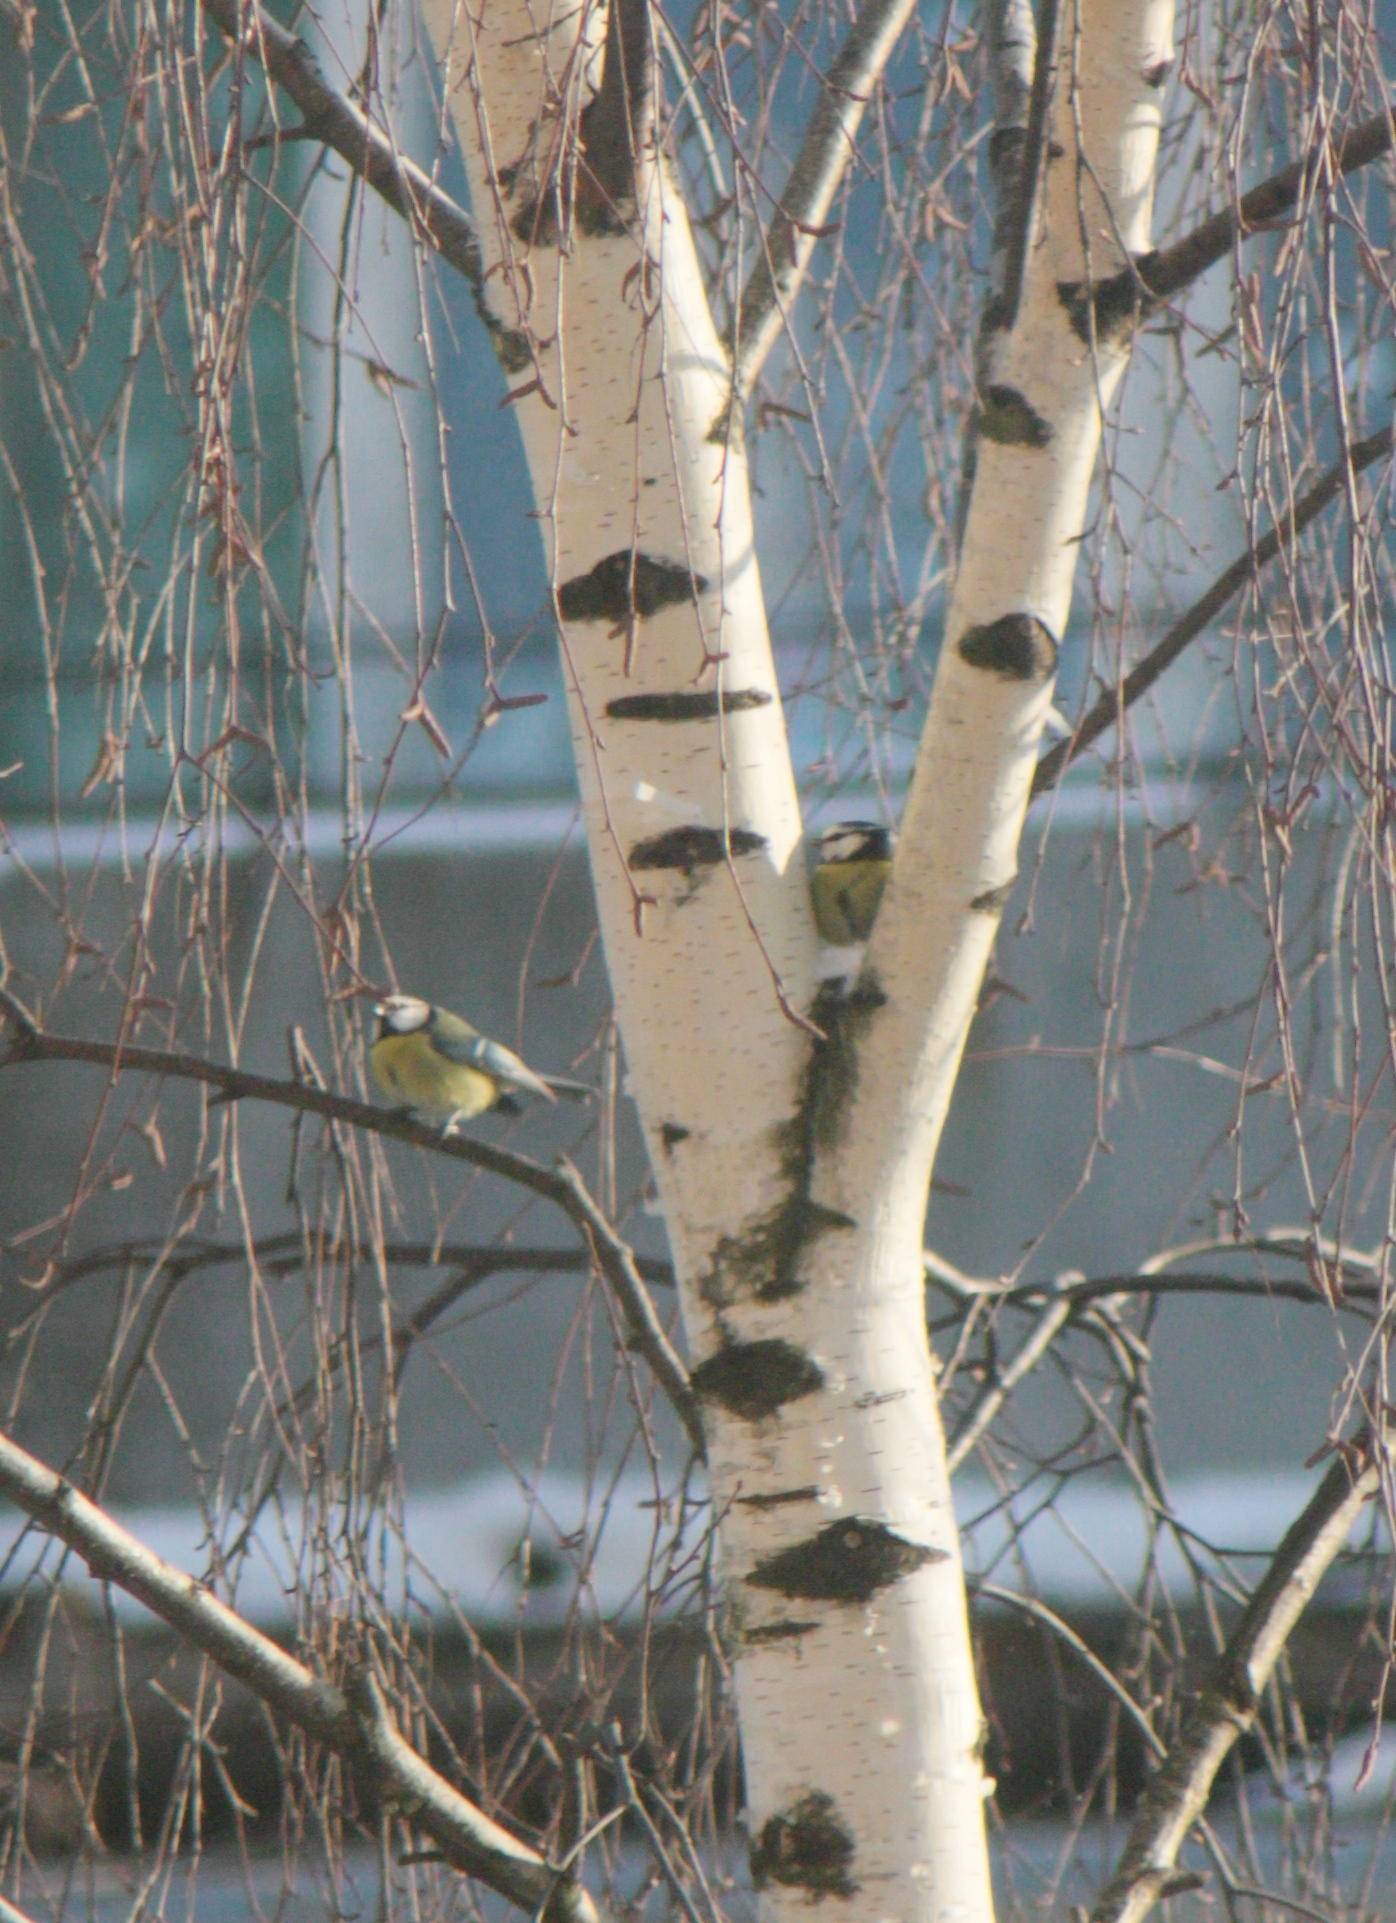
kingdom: Animalia
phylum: Chordata
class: Aves
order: Passeriformes
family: Paridae
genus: Cyanistes
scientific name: Cyanistes caeruleus
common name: Eurasian blue tit
